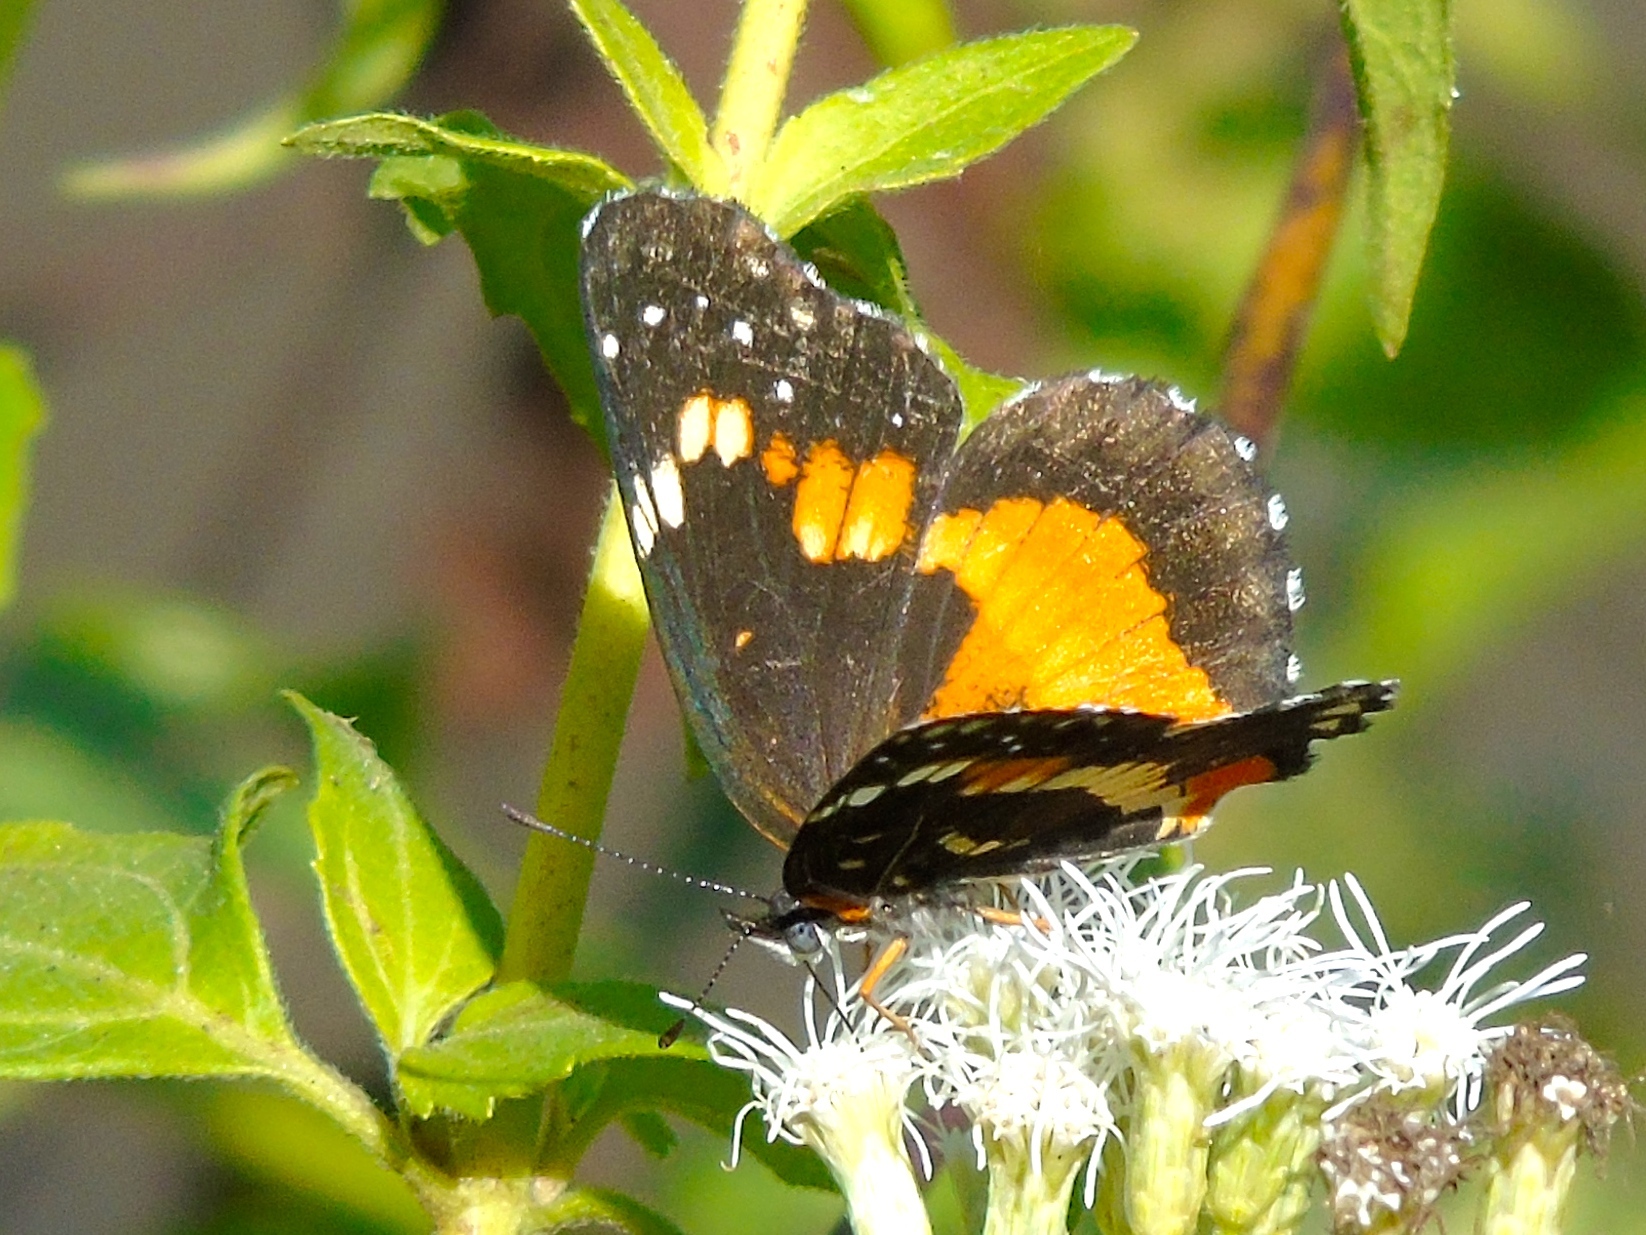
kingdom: Animalia
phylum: Arthropoda
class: Insecta
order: Lepidoptera
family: Nymphalidae
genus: Chlosyne
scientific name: Chlosyne lacinia
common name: Bordered patch
